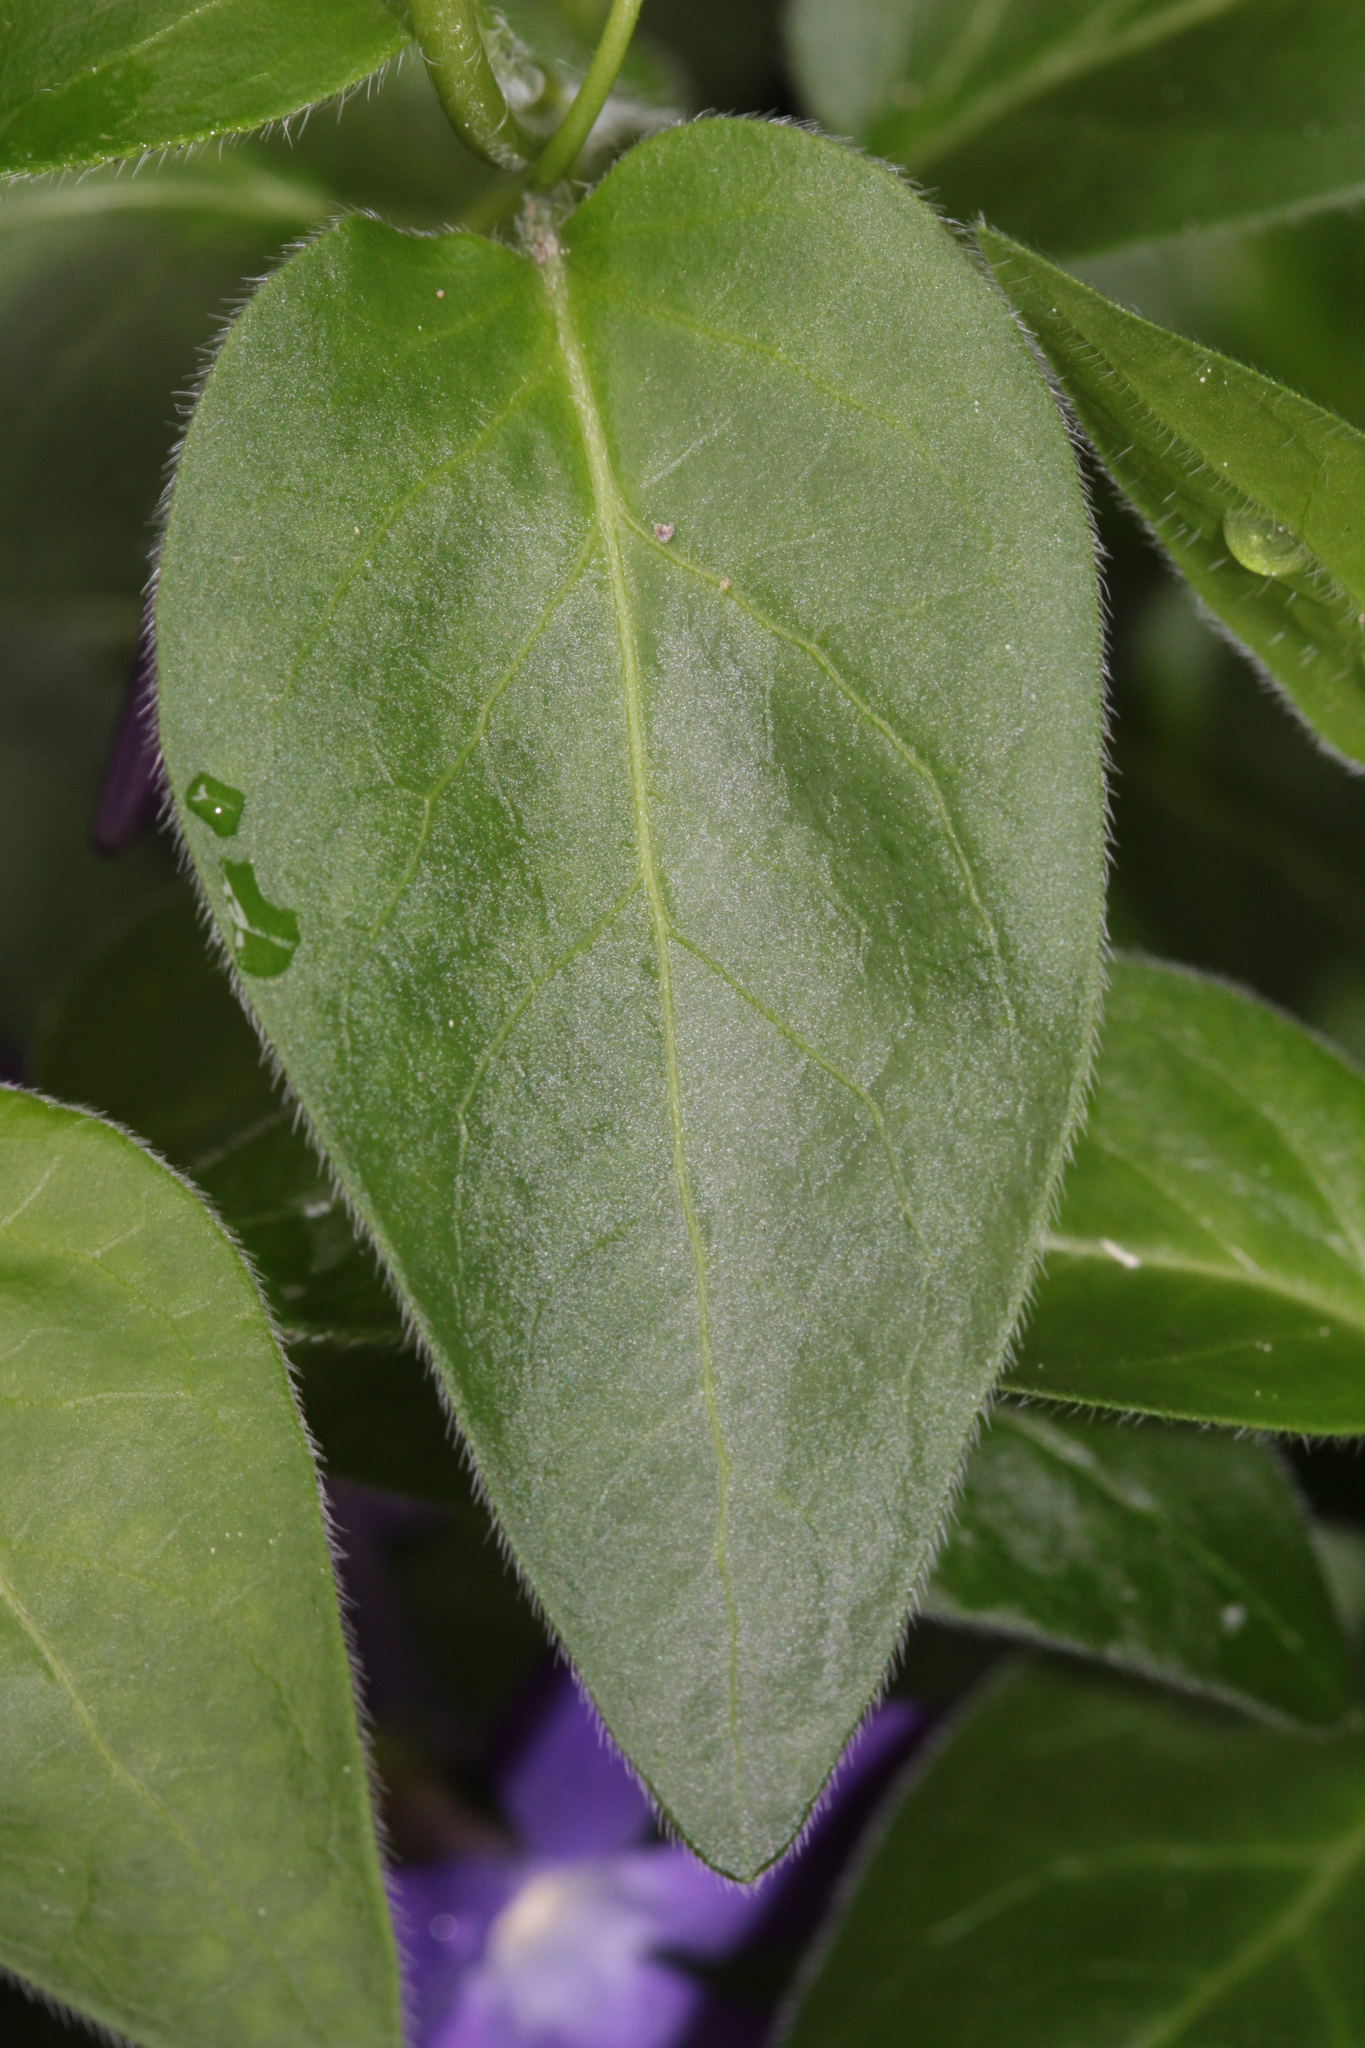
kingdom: Plantae
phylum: Tracheophyta
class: Magnoliopsida
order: Gentianales
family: Apocynaceae
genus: Vinca
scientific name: Vinca major
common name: Greater periwinkle
